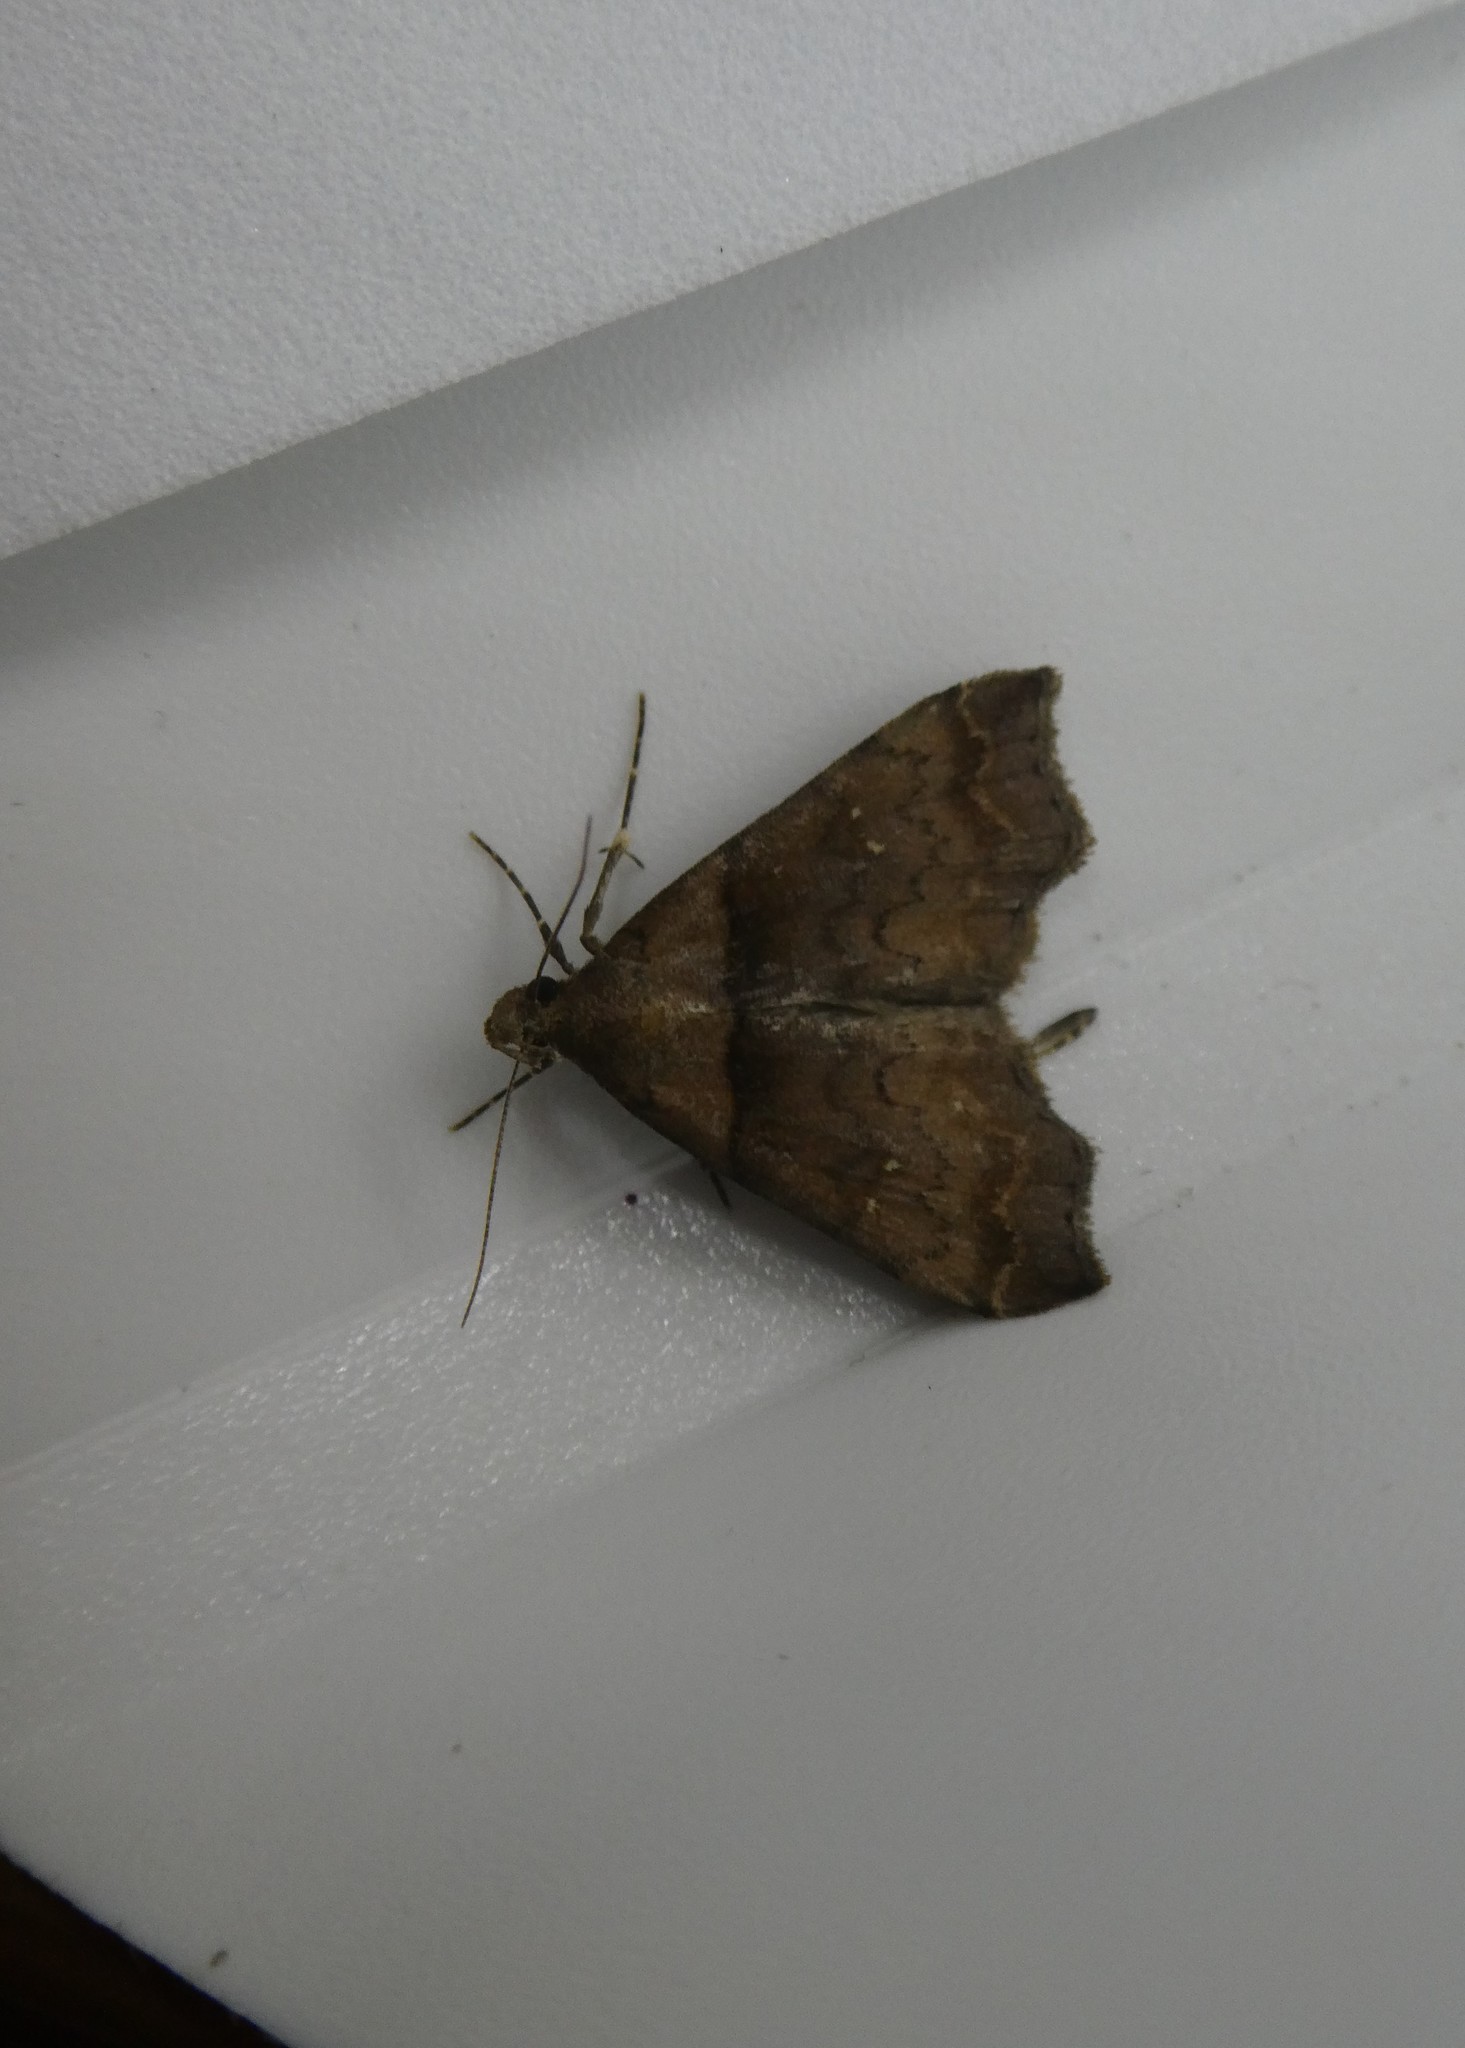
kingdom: Animalia
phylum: Arthropoda
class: Insecta
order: Lepidoptera
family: Erebidae
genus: Lascoria
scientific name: Lascoria ambigualis
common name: Ambiguous moth
